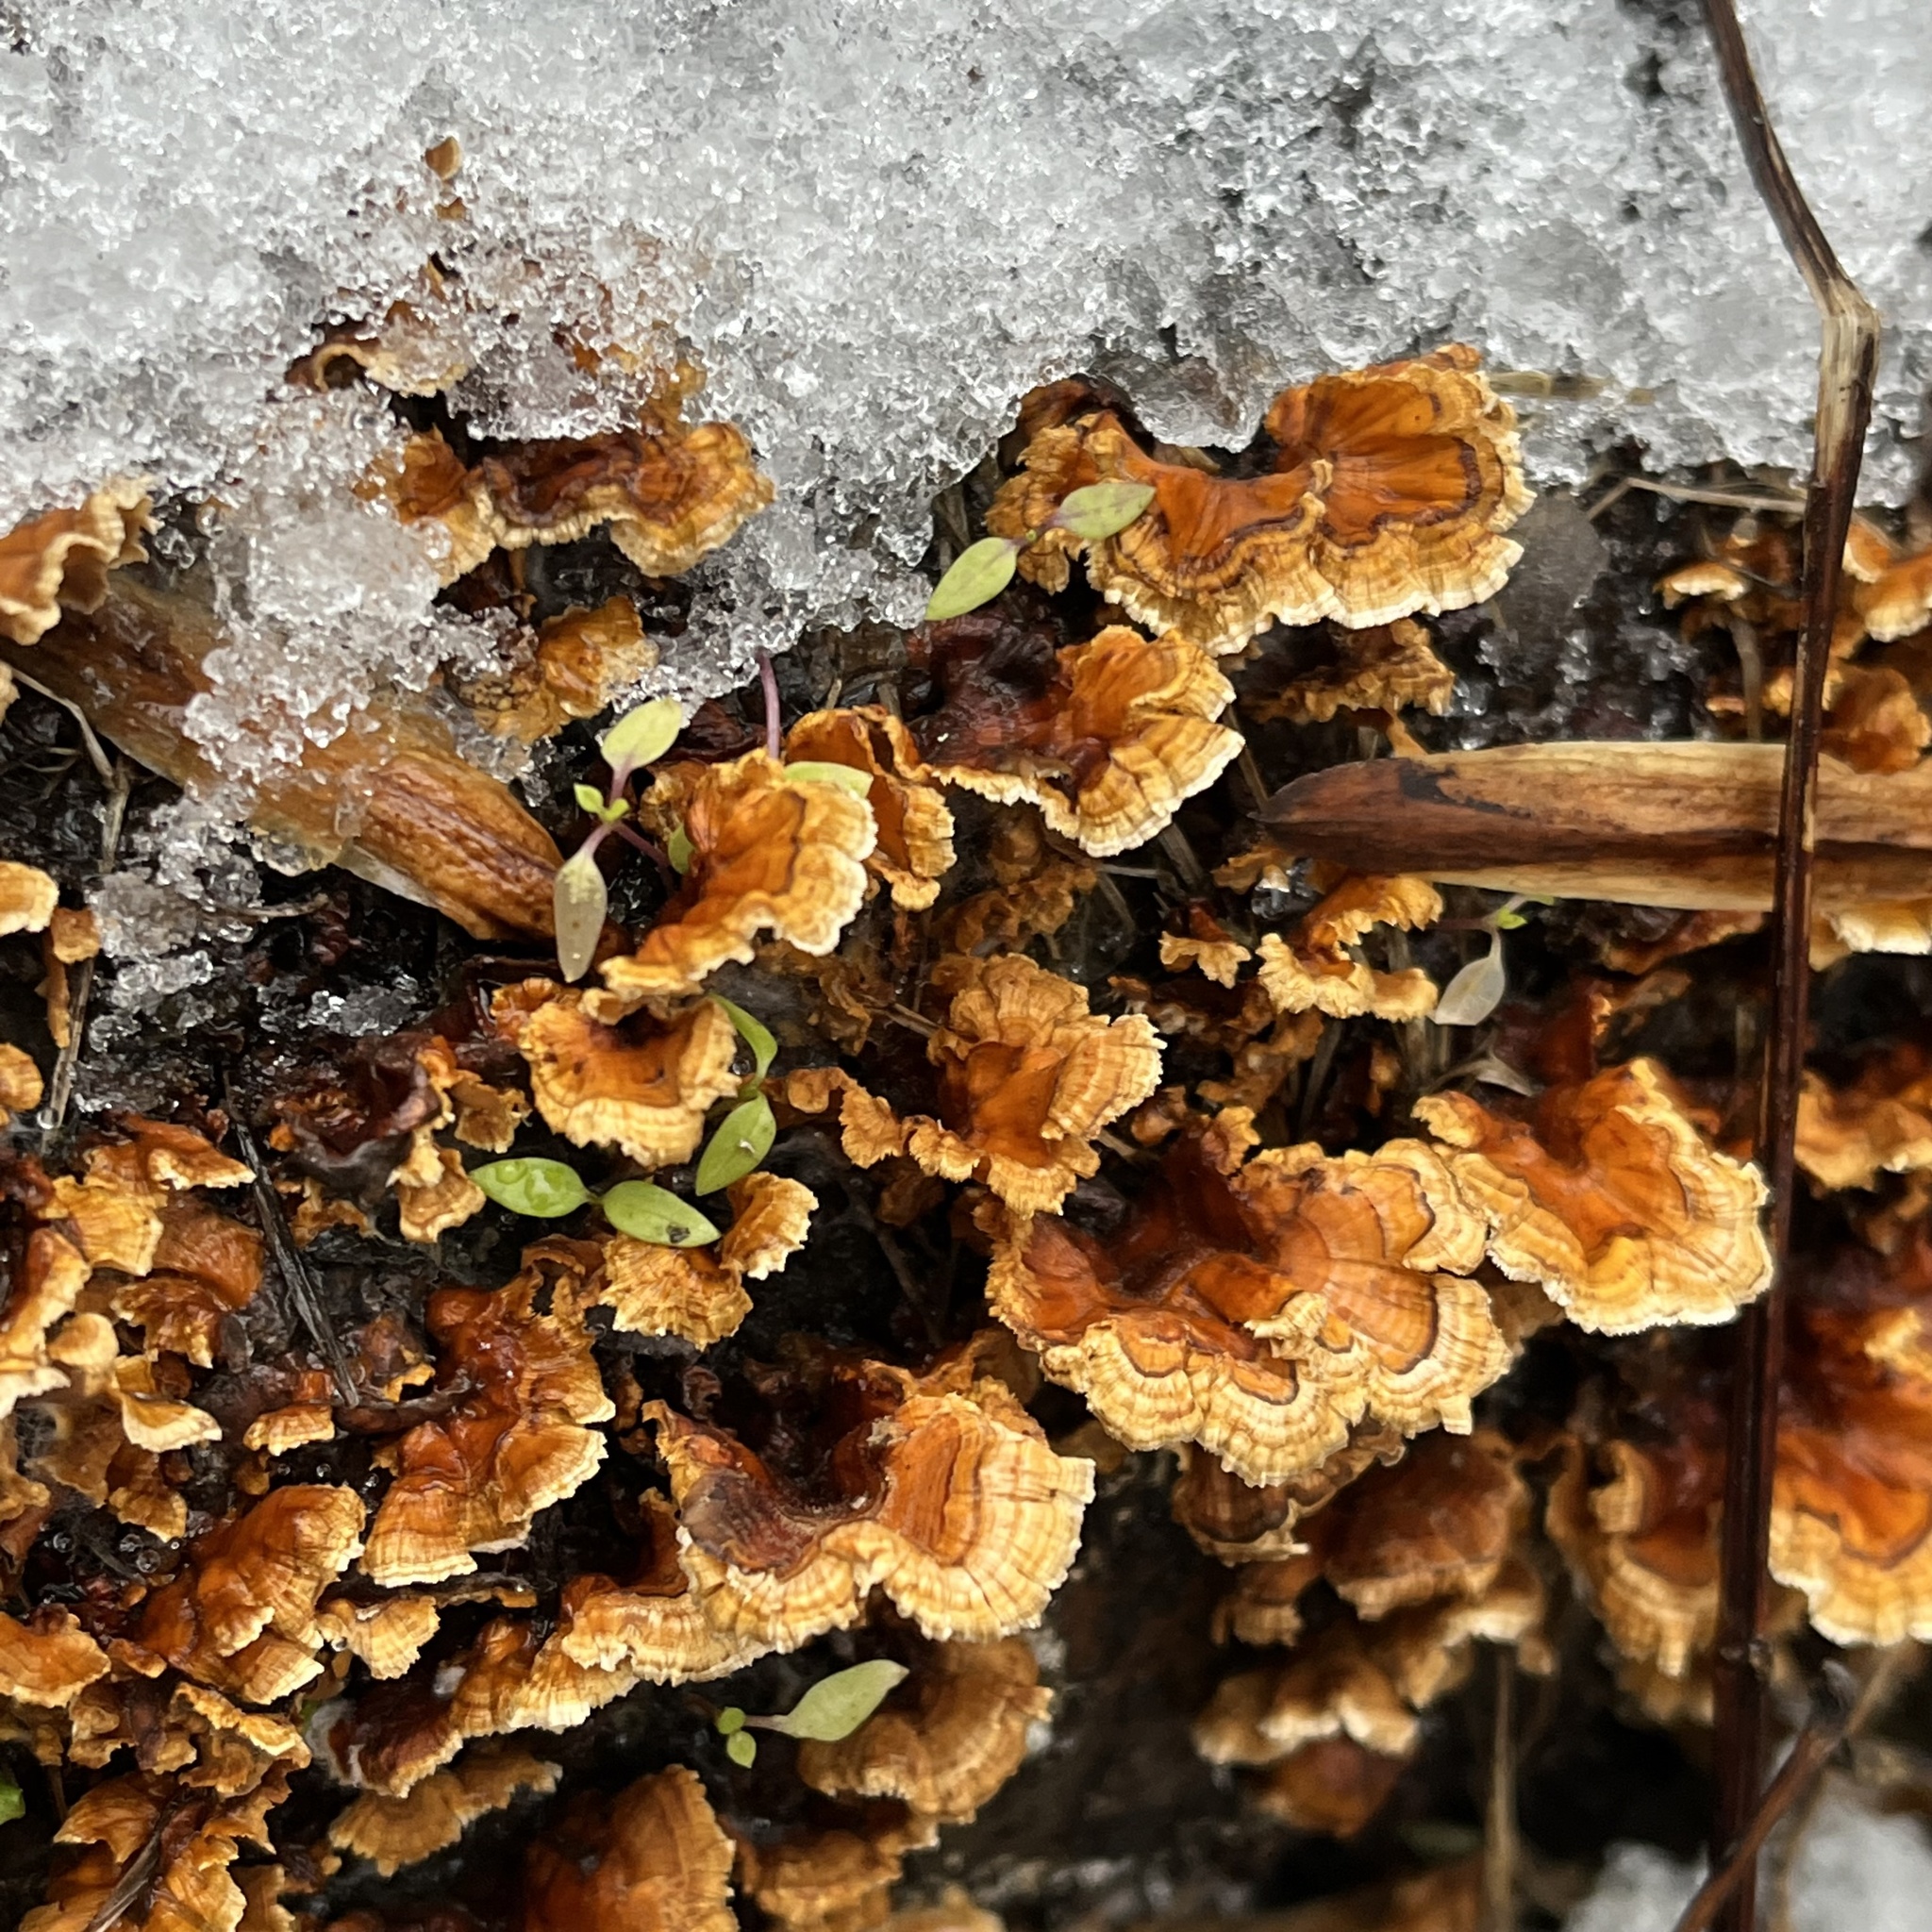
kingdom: Fungi
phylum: Basidiomycota
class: Agaricomycetes
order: Russulales
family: Stereaceae
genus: Stereum
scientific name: Stereum complicatum
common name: Crowded parchment
